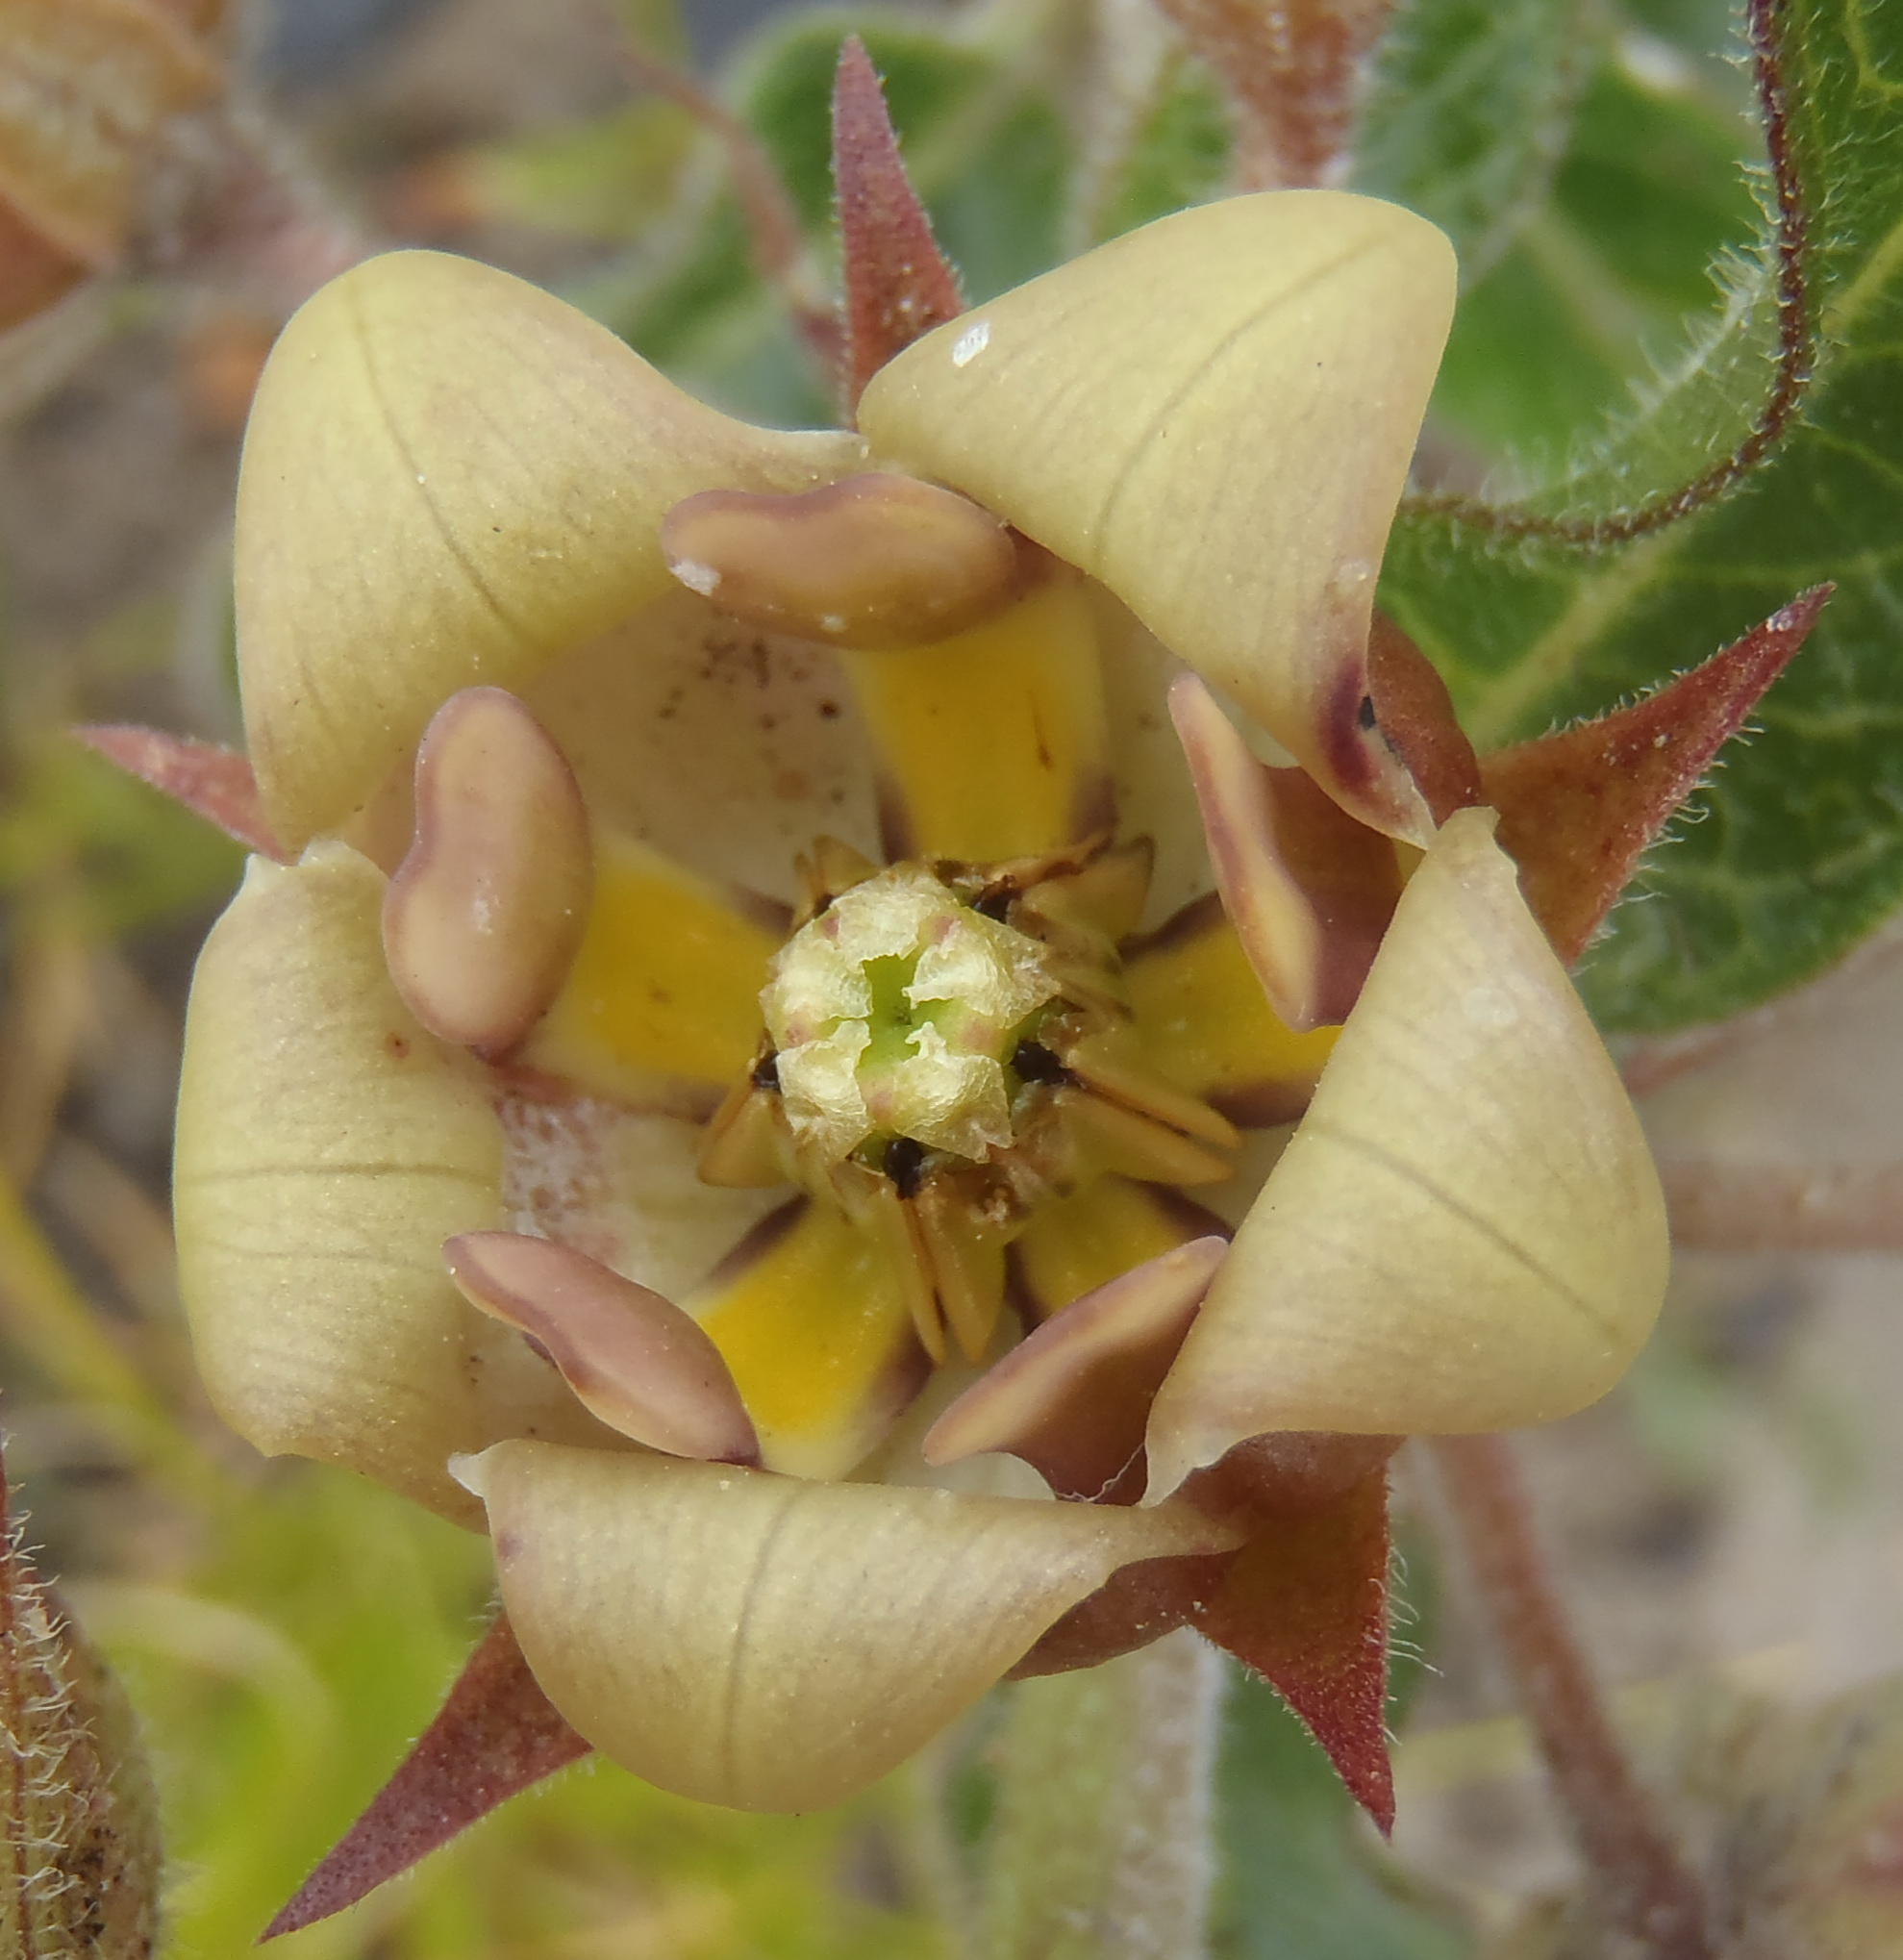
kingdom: Plantae
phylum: Tracheophyta
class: Magnoliopsida
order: Gentianales
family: Apocynaceae
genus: Pachycarpus
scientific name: Pachycarpus dealbatus
